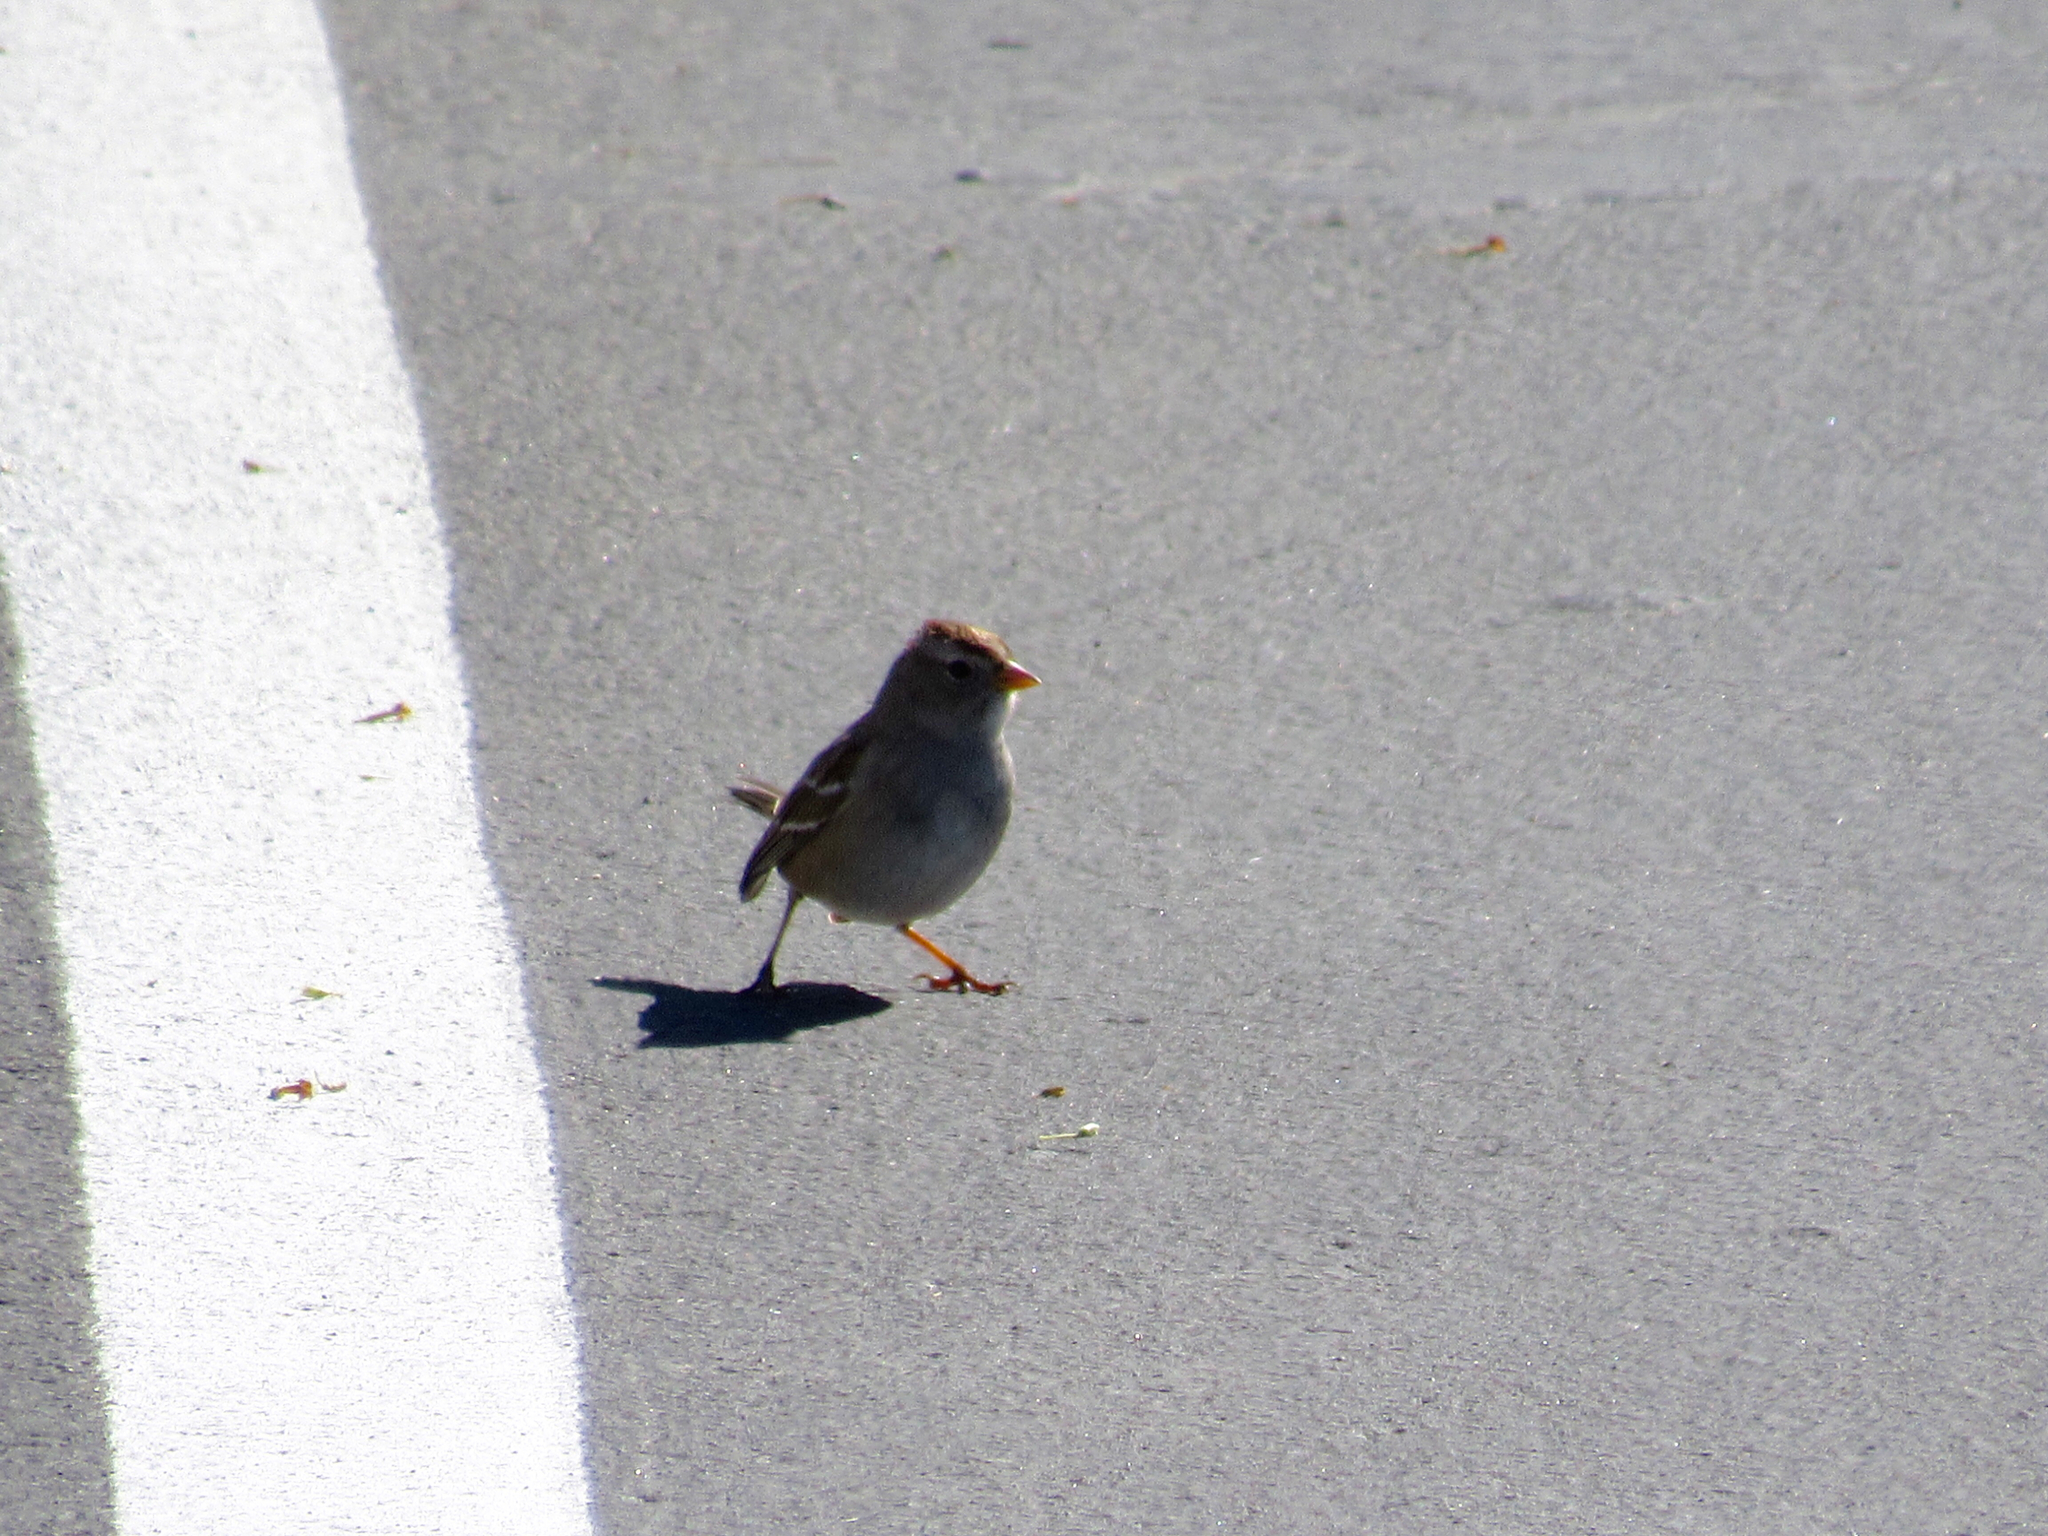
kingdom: Animalia
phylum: Chordata
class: Aves
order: Passeriformes
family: Passerellidae
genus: Zonotrichia
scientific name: Zonotrichia leucophrys
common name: White-crowned sparrow
